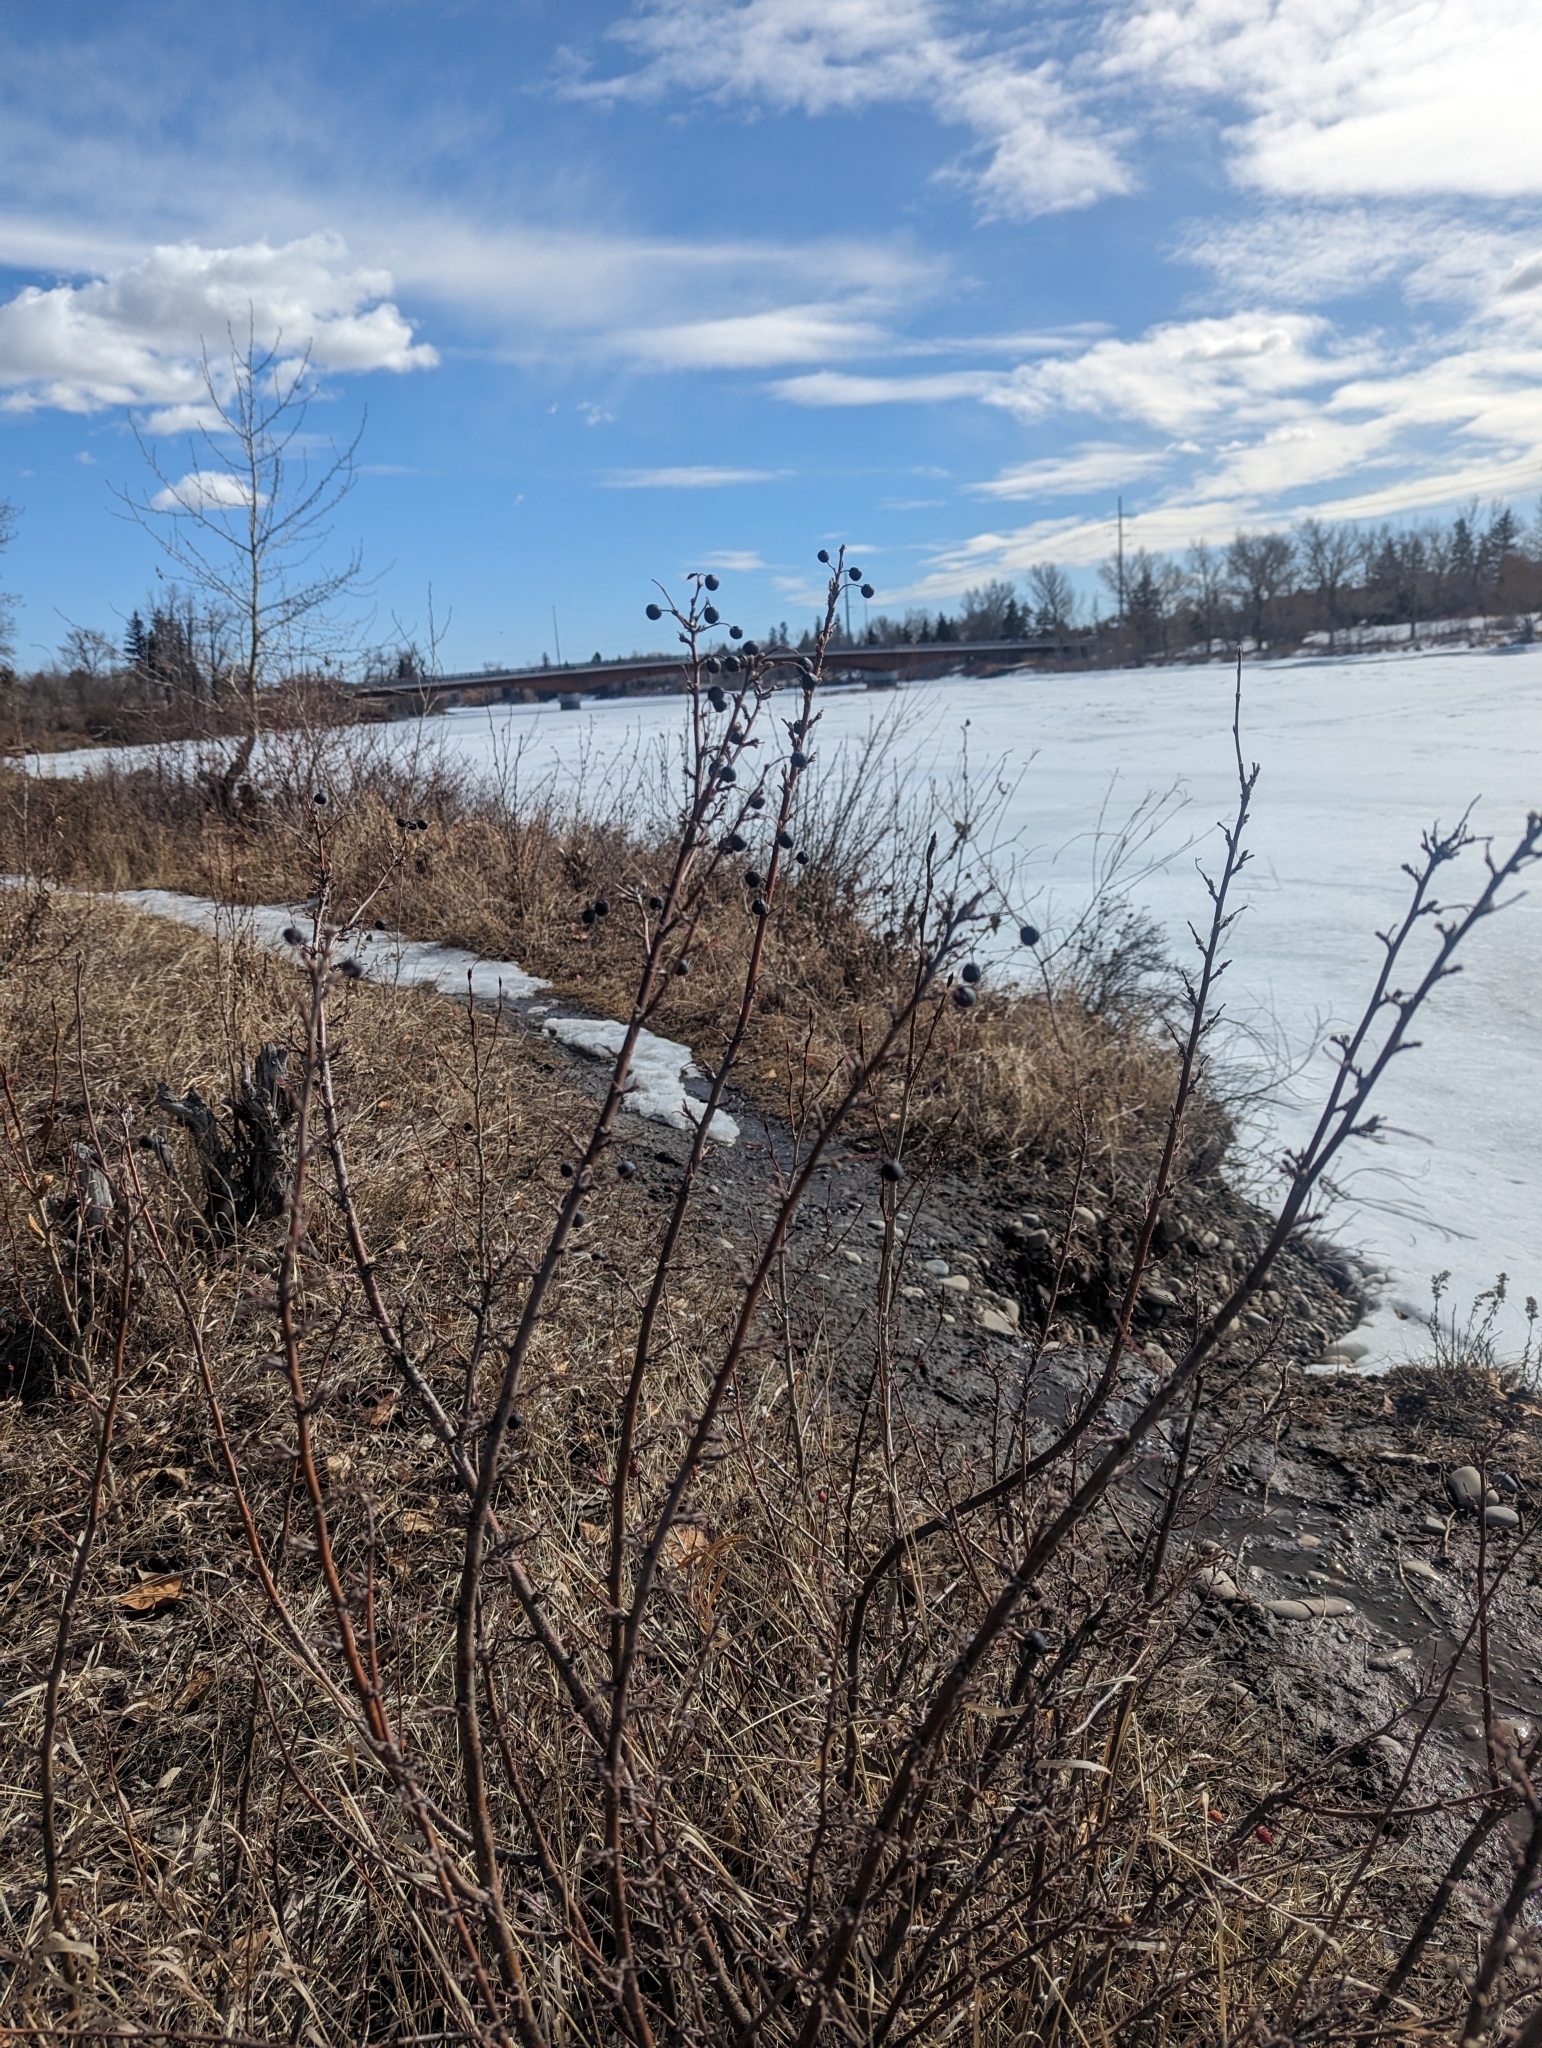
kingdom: Plantae
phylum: Tracheophyta
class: Magnoliopsida
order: Rosales
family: Rosaceae
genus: Cotoneaster
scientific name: Cotoneaster acutifolius
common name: Peking cotoneaster
